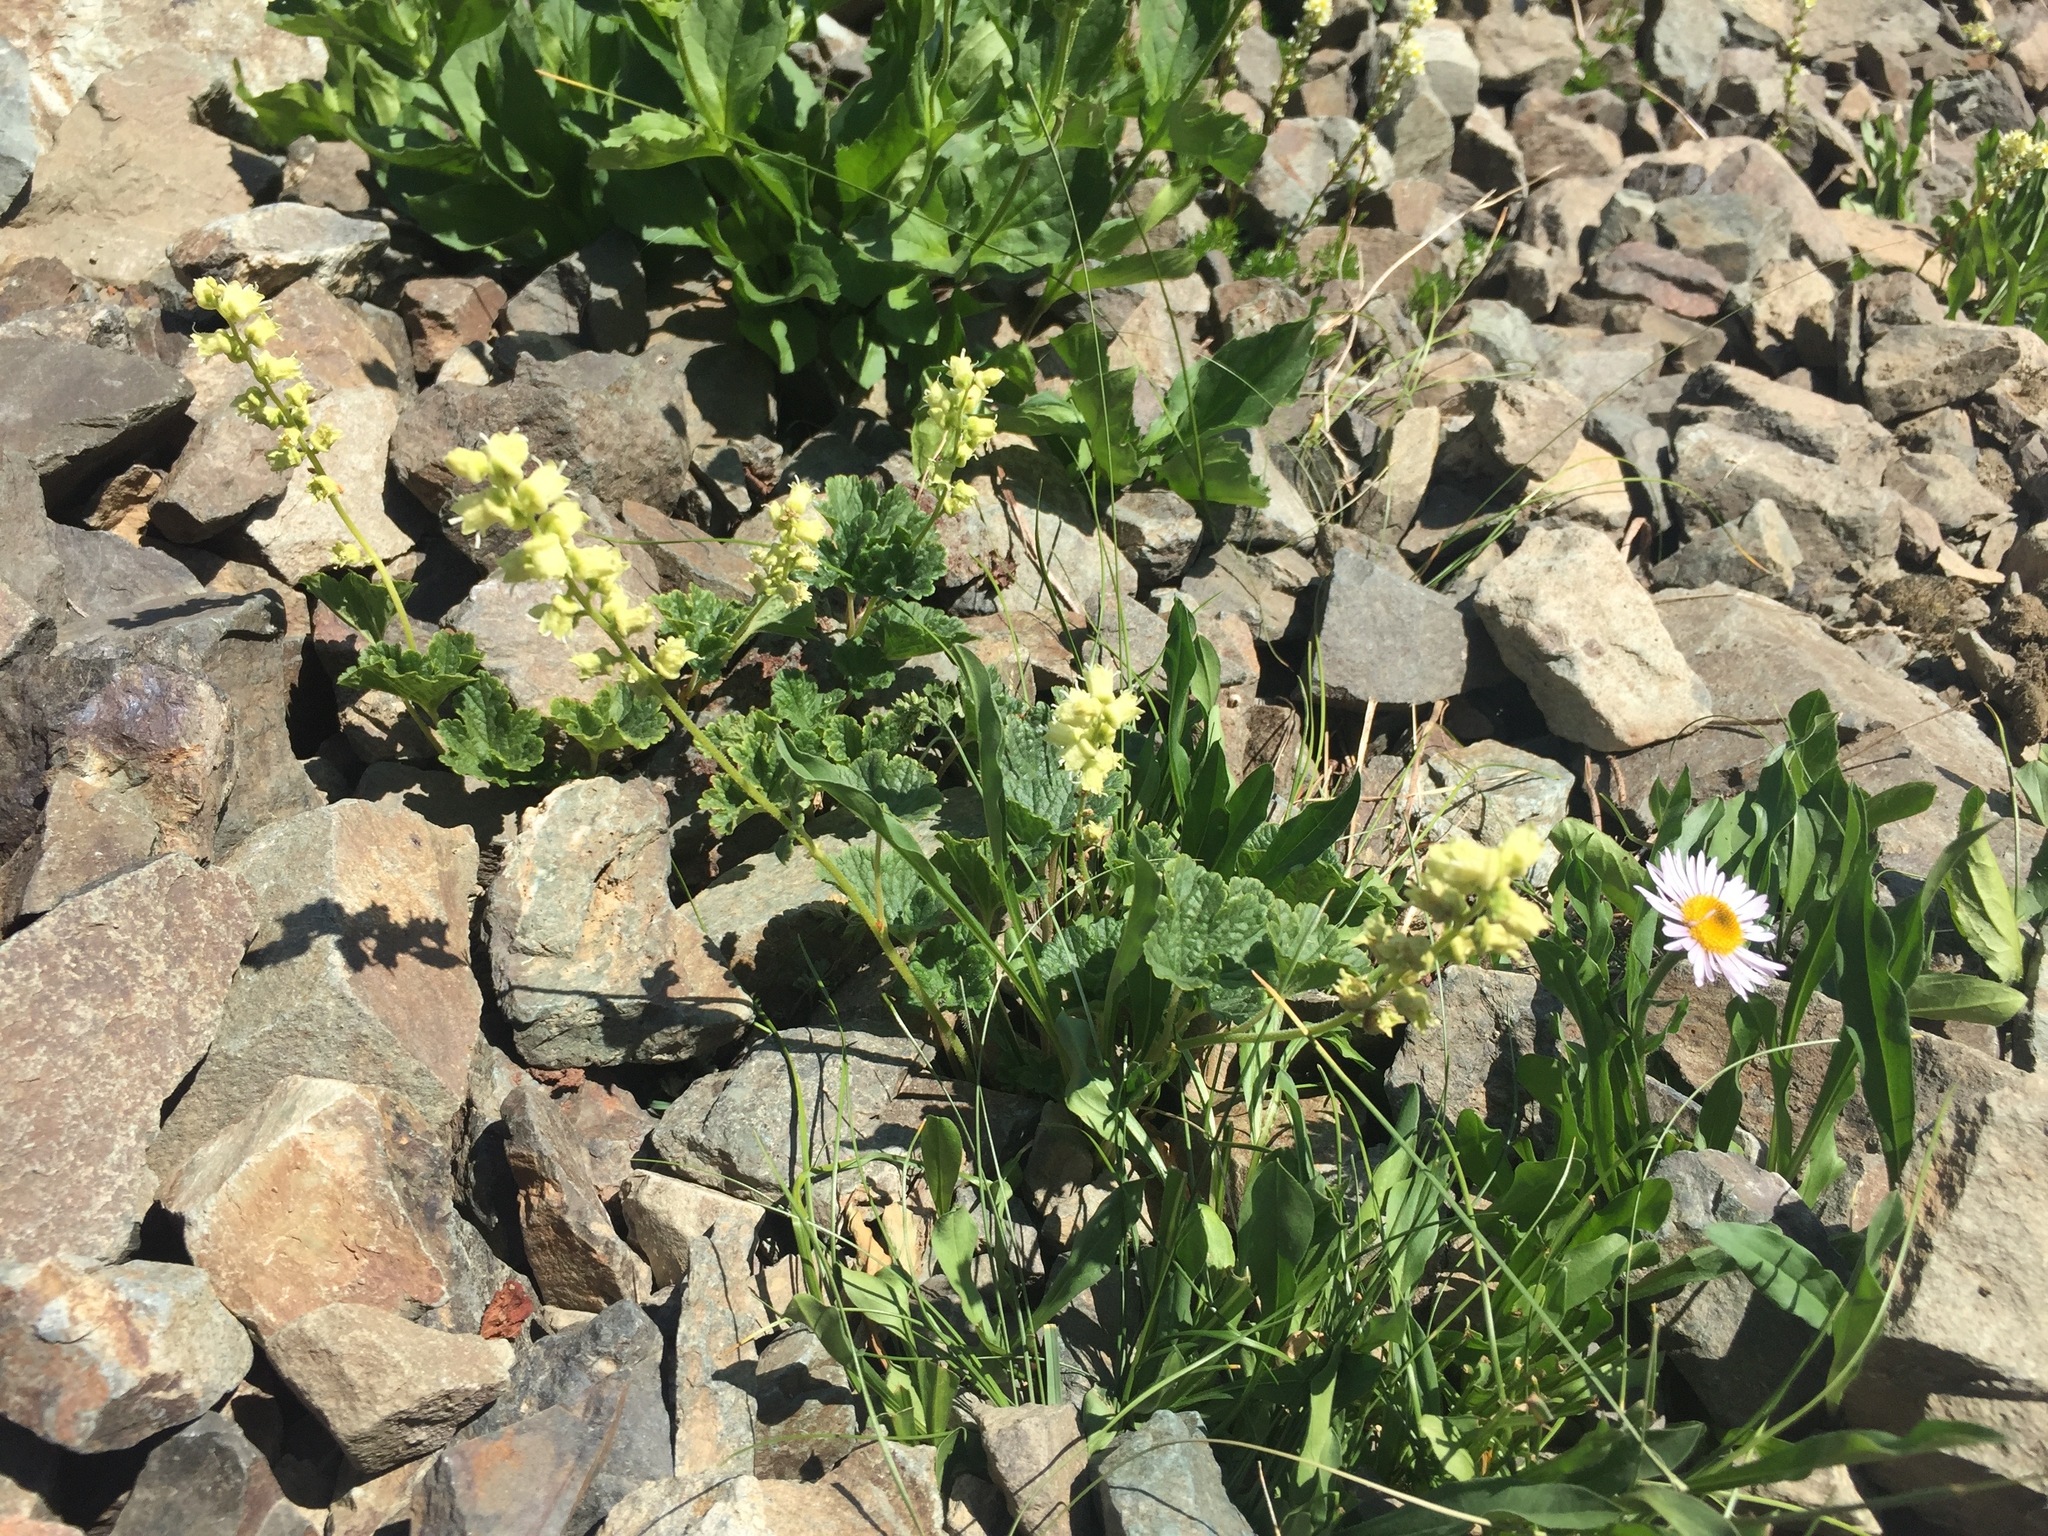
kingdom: Plantae
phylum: Tracheophyta
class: Magnoliopsida
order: Saxifragales
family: Saxifragaceae
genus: Elmera
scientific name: Elmera racemosa
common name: Elmera
